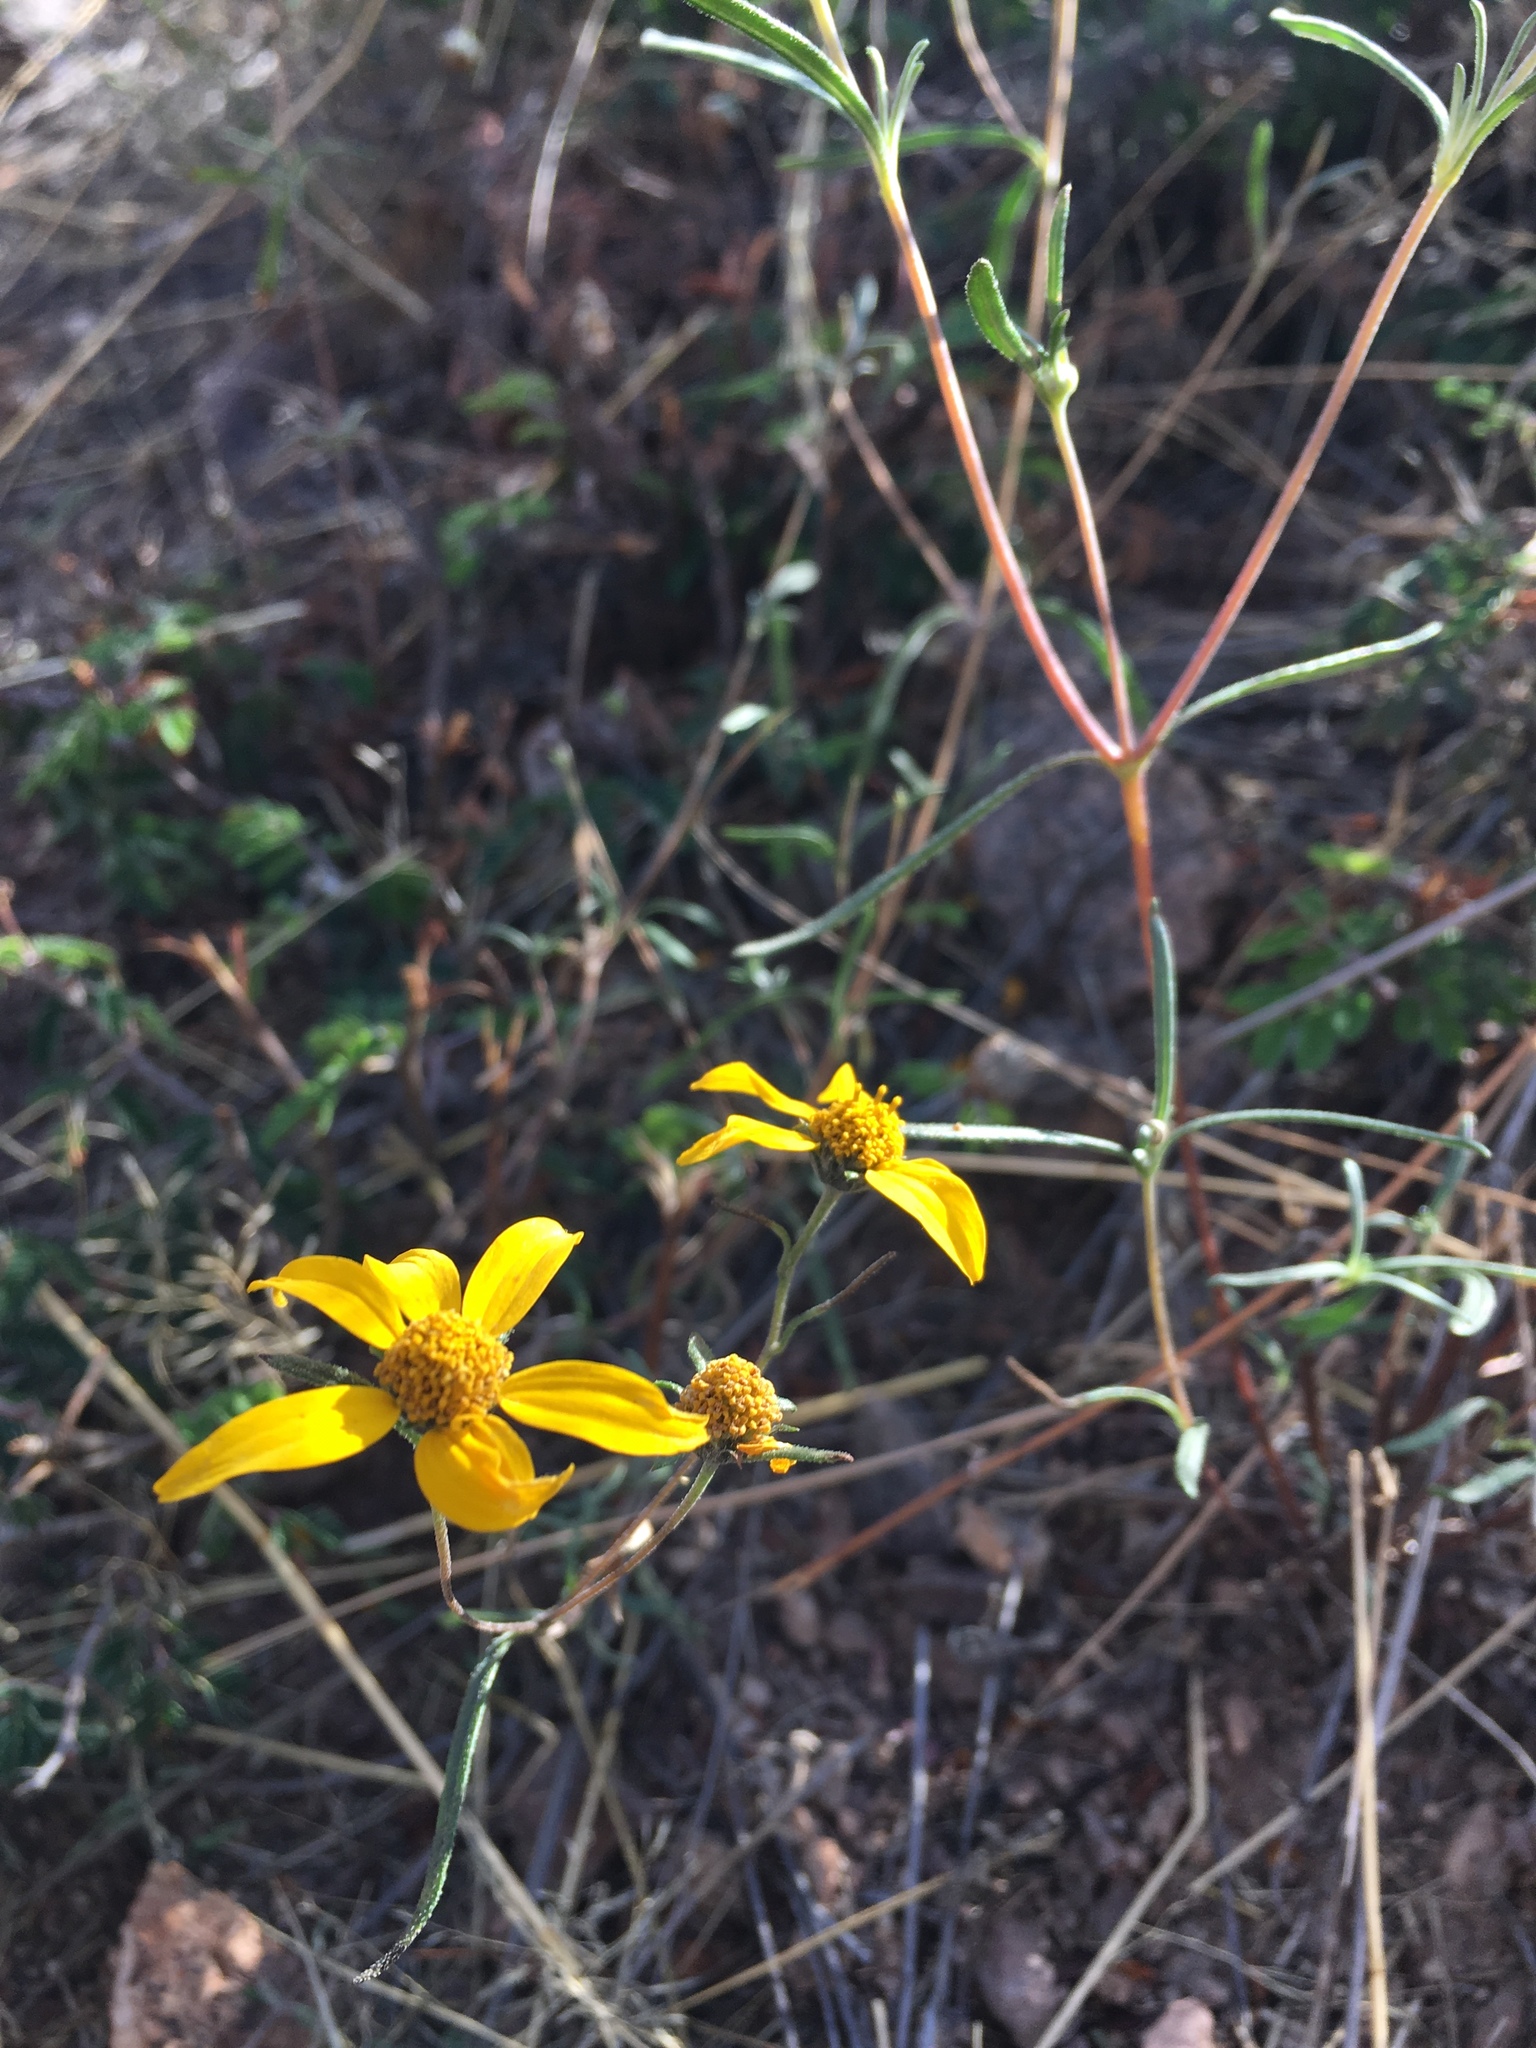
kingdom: Plantae
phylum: Tracheophyta
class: Magnoliopsida
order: Asterales
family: Asteraceae
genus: Heliomeris
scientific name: Heliomeris multiflora
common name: Showy goldeneye
